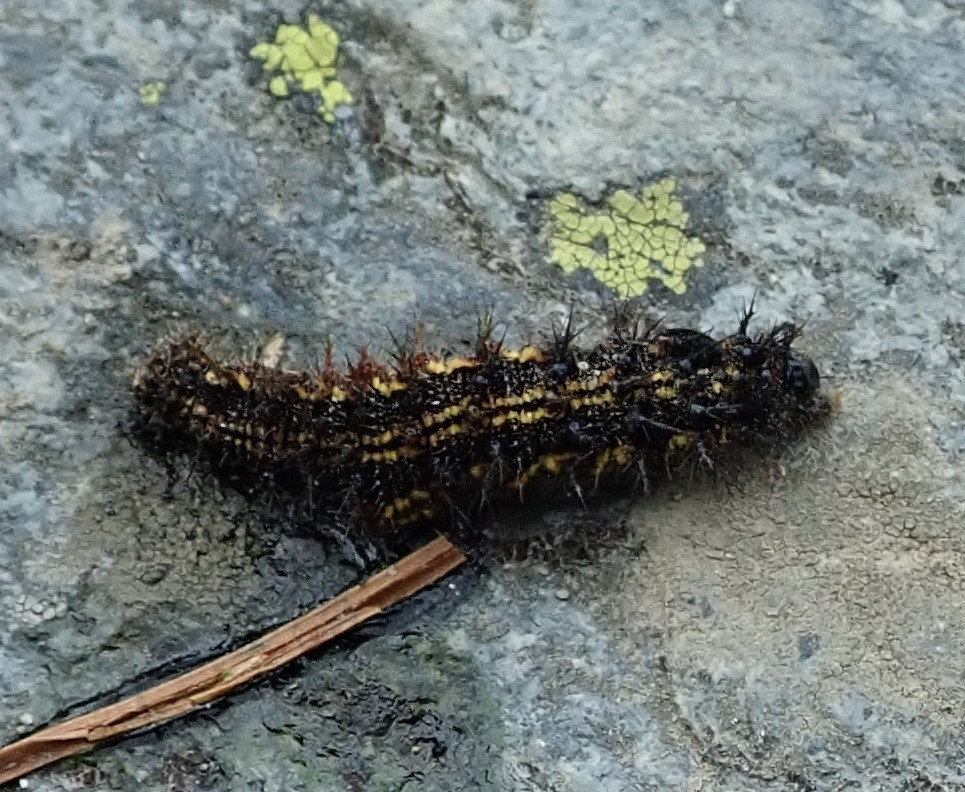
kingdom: Animalia
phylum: Arthropoda
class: Insecta
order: Lepidoptera
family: Nymphalidae
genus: Aglais
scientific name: Aglais urticae
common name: Small tortoiseshell
